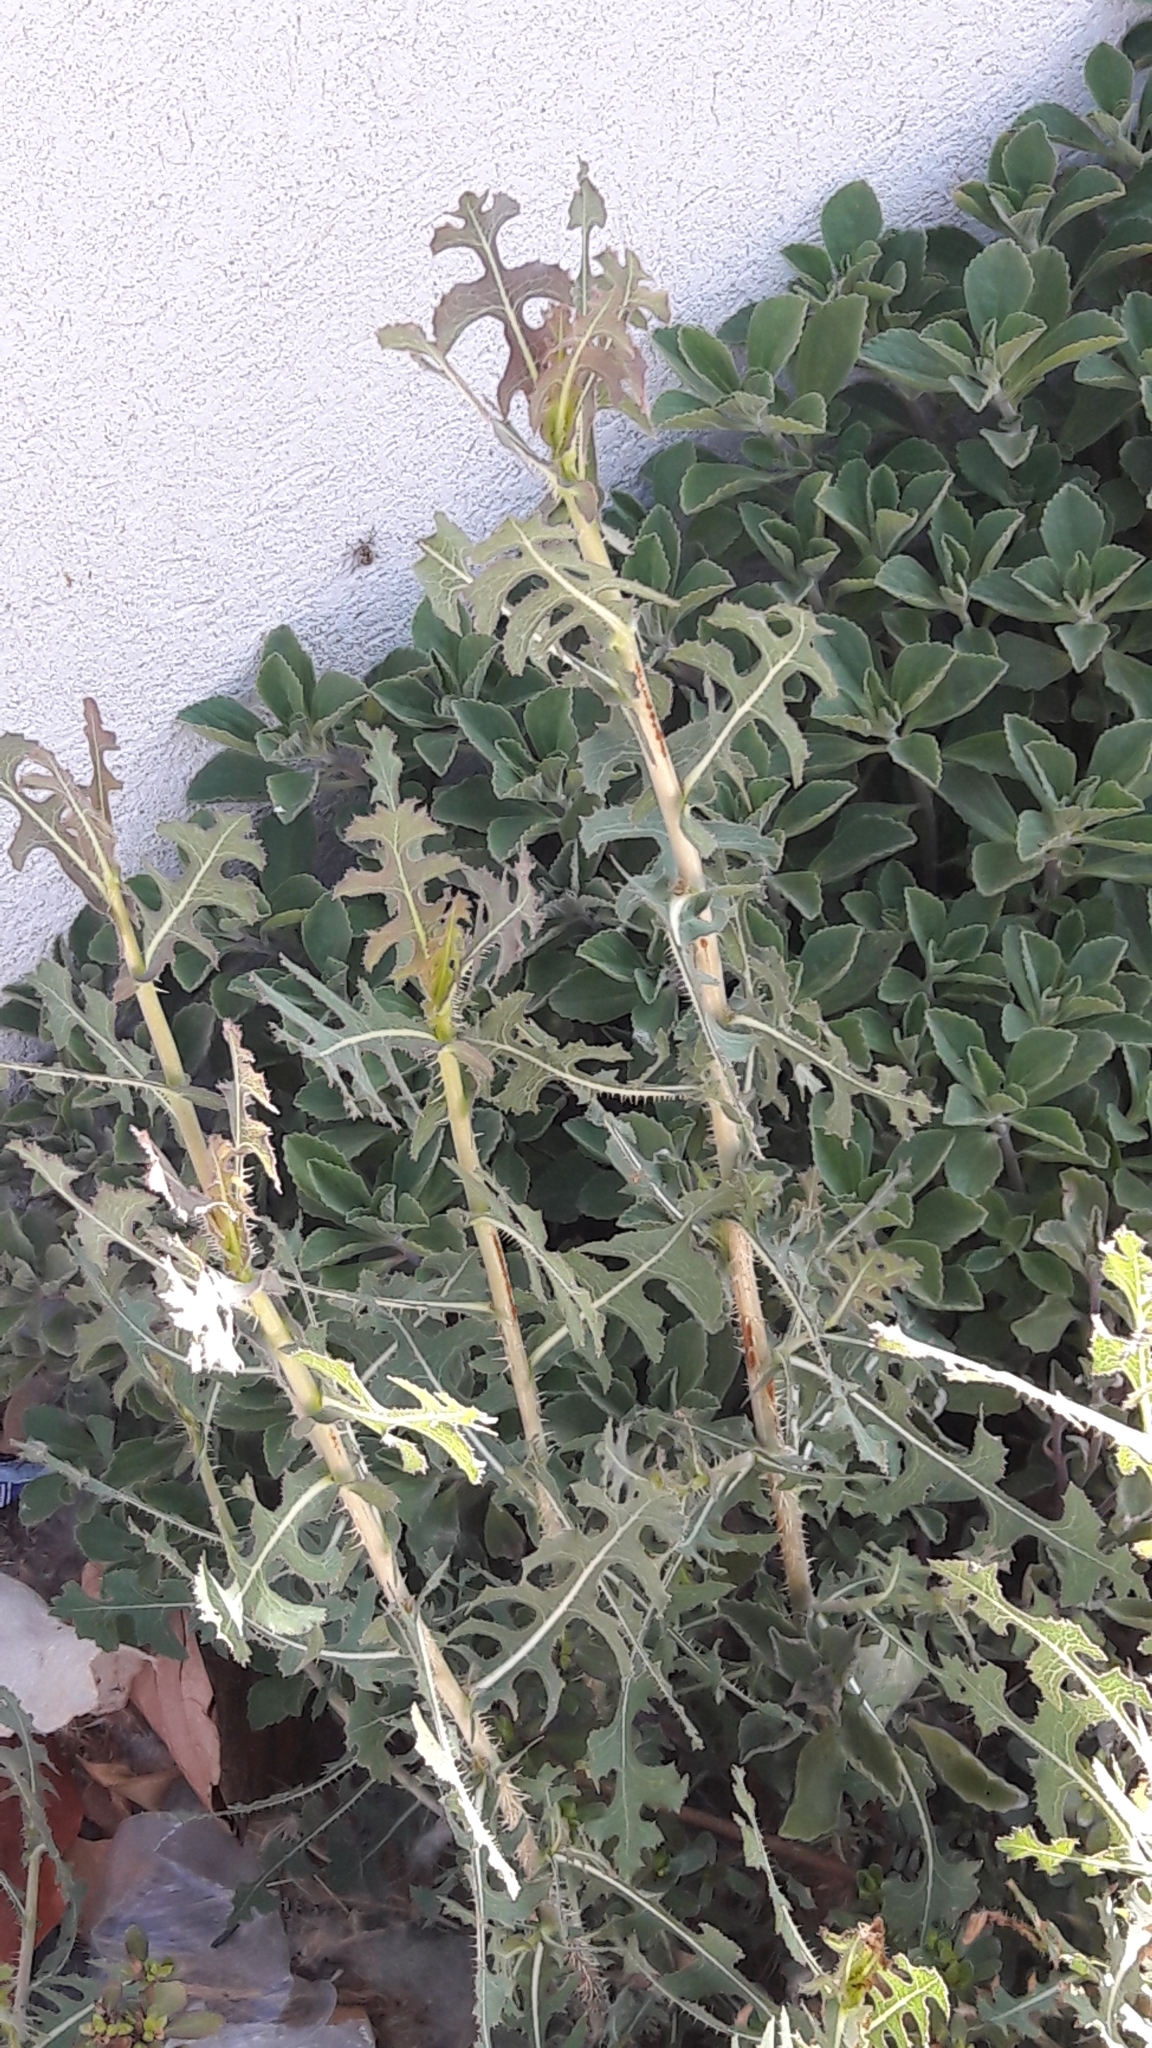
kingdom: Plantae
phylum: Tracheophyta
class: Magnoliopsida
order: Asterales
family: Asteraceae
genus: Lactuca
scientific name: Lactuca serriola
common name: Prickly lettuce
